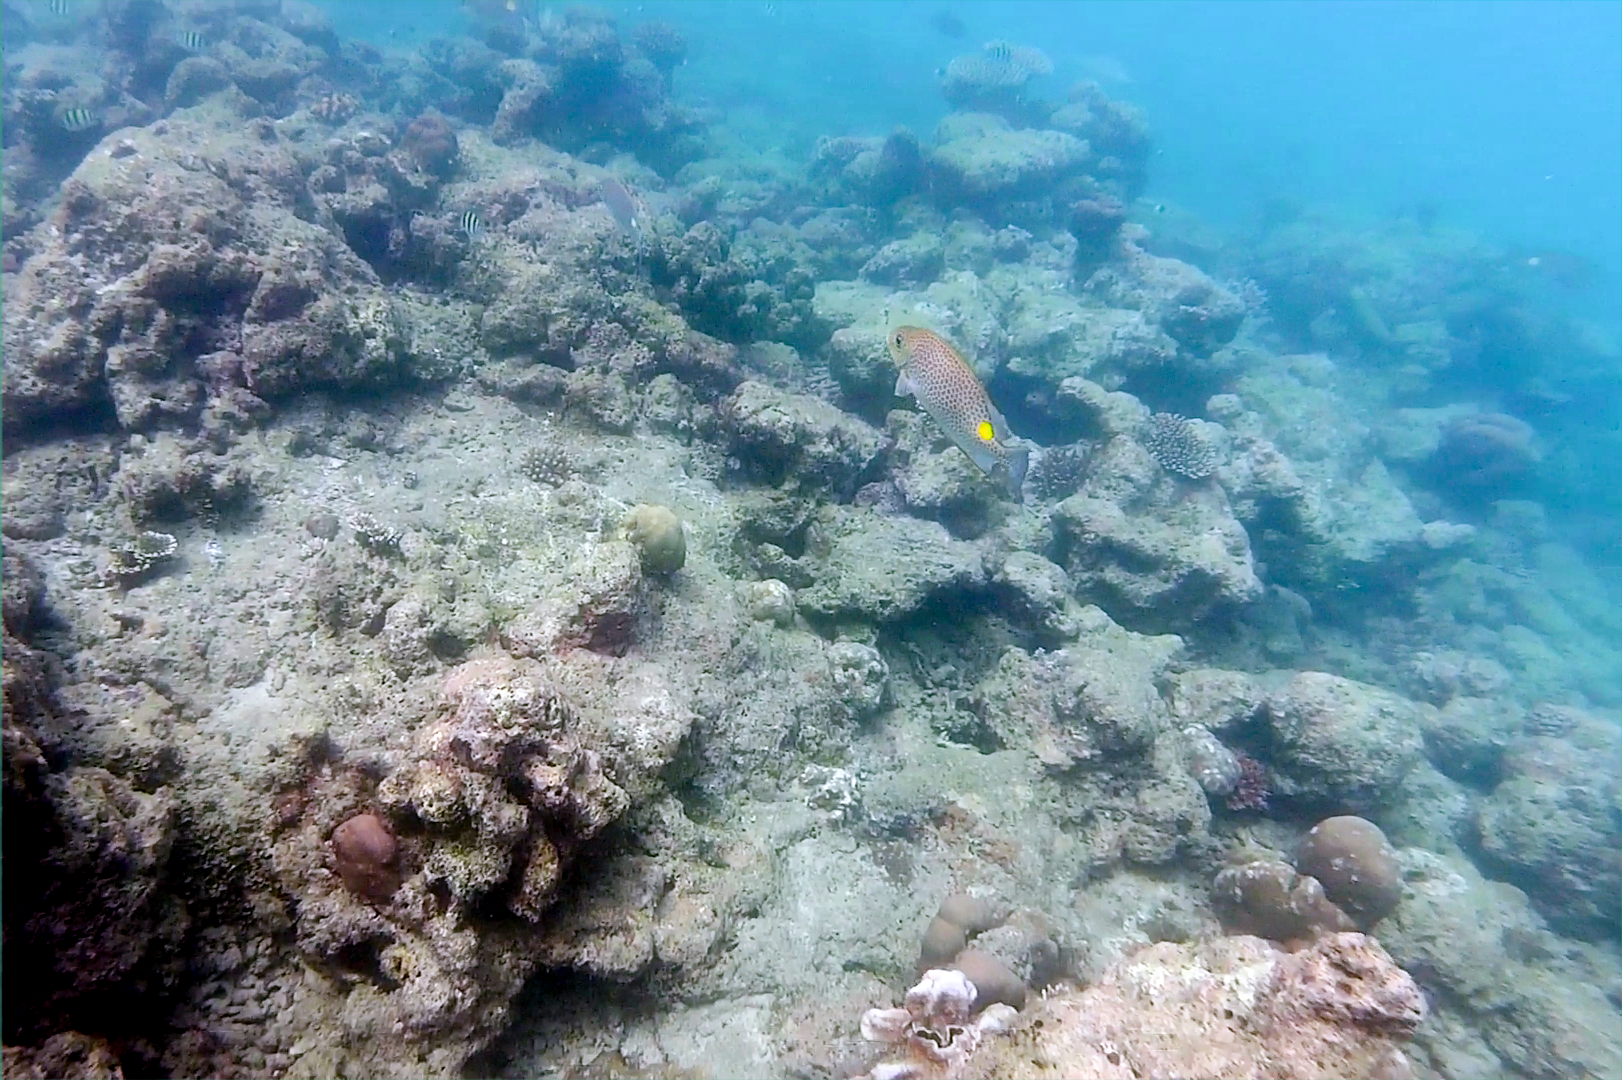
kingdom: Animalia
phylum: Chordata
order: Perciformes
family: Siganidae
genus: Siganus
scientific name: Siganus guttatus
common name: Golden rabbitfish
